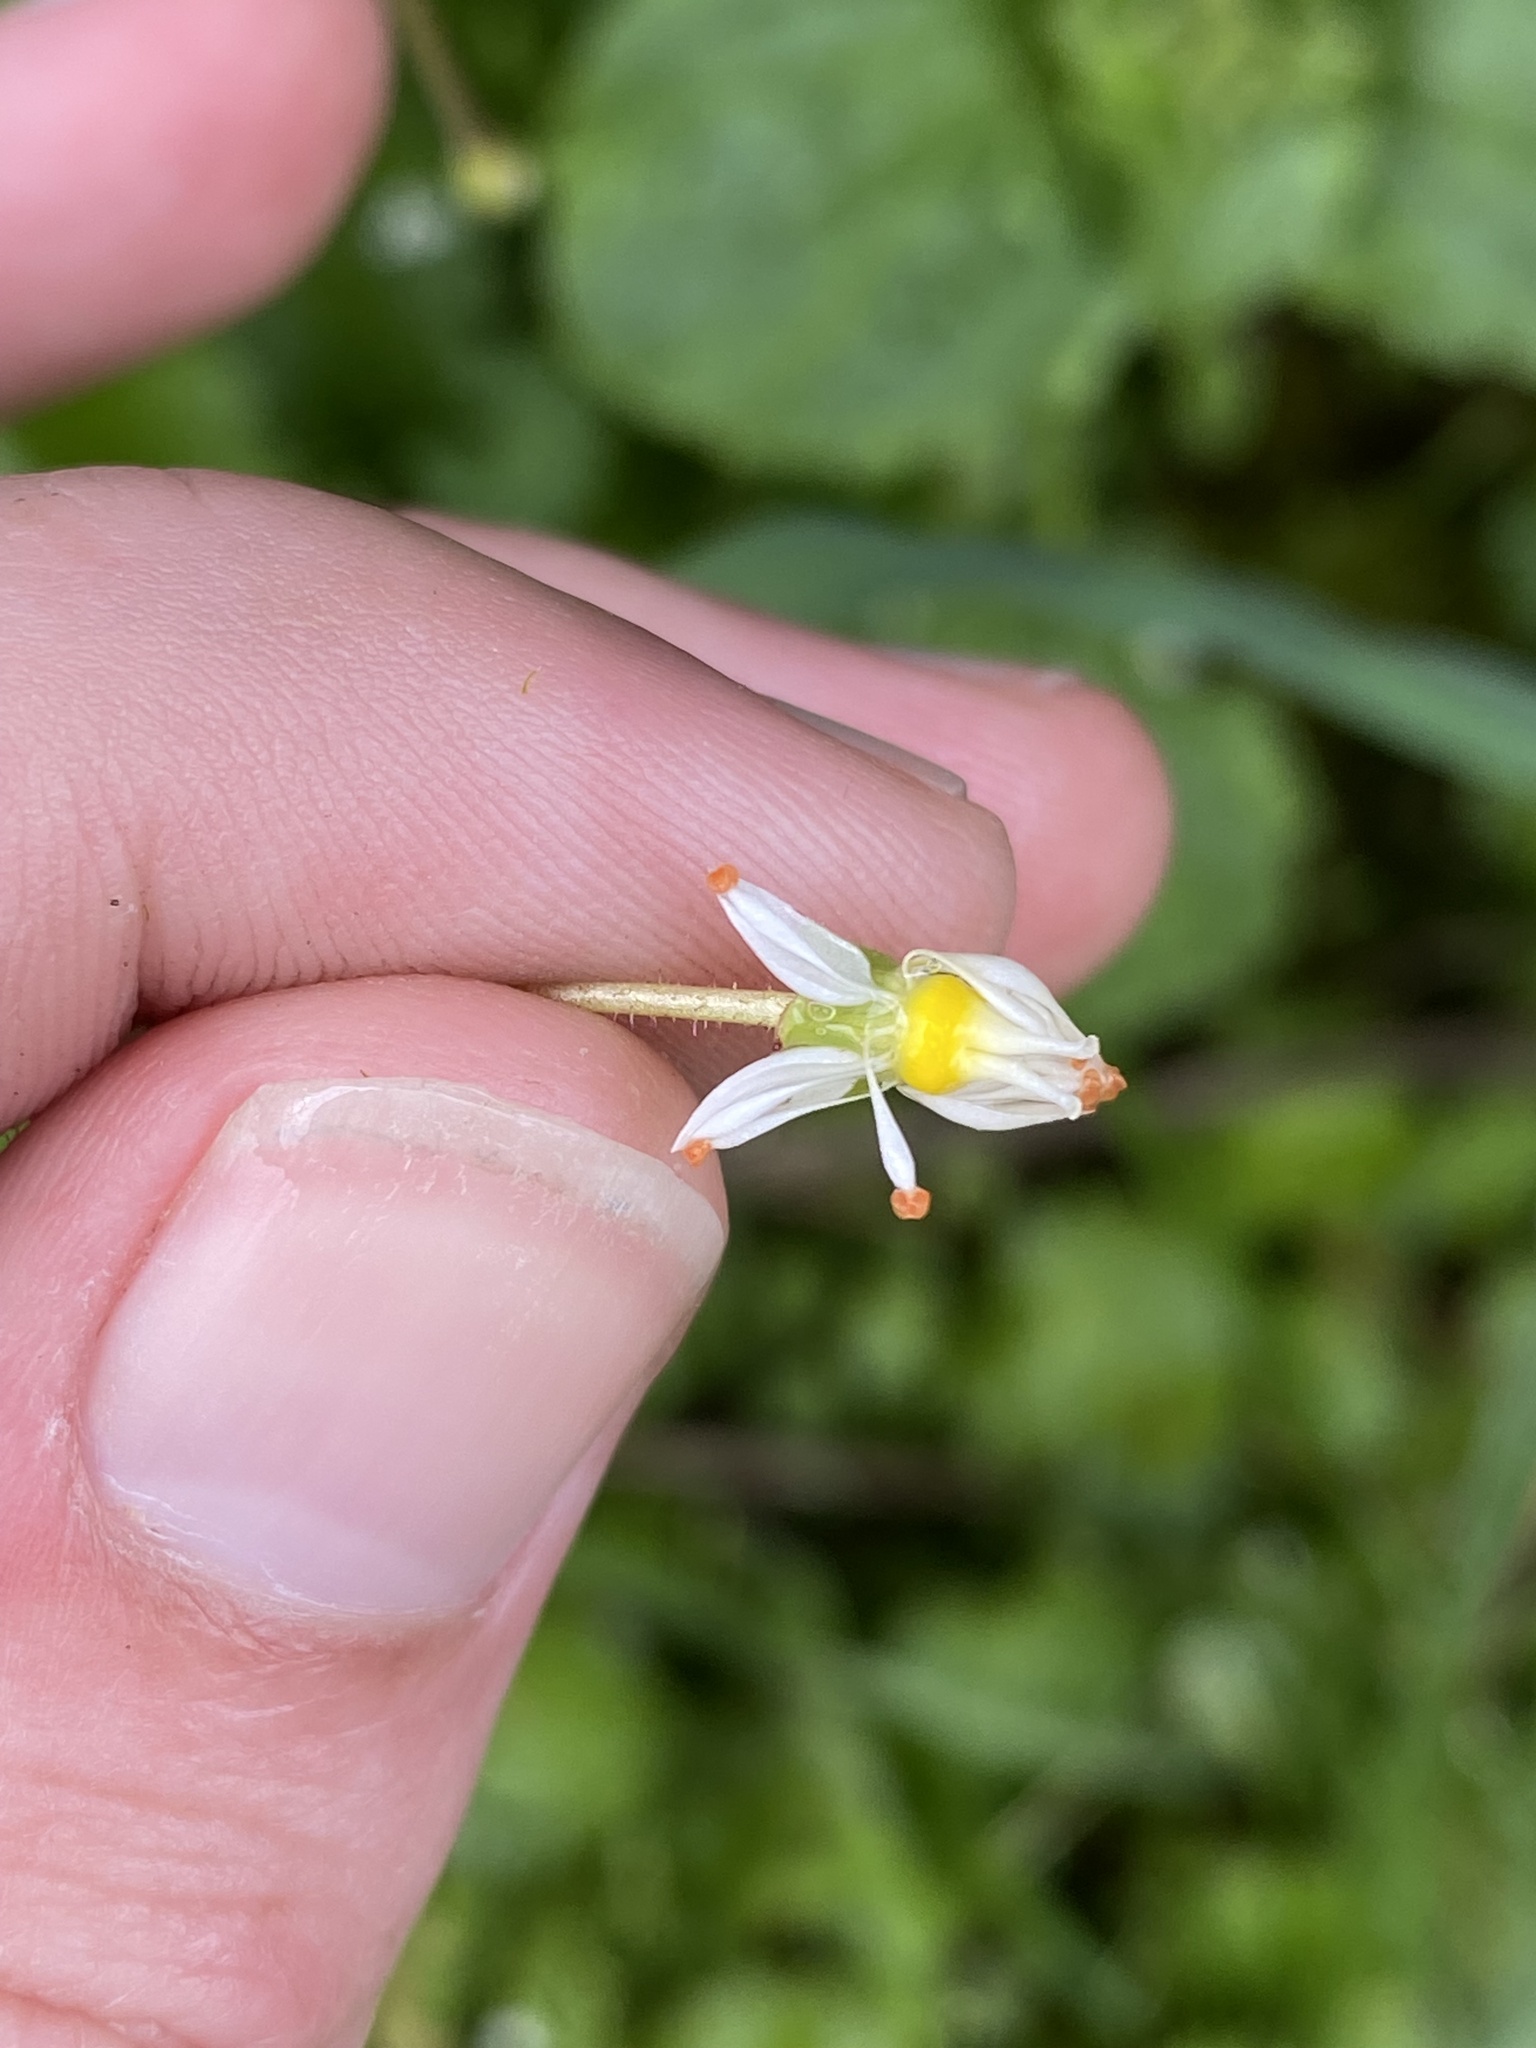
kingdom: Plantae
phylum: Tracheophyta
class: Magnoliopsida
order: Saxifragales
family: Saxifragaceae
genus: Micranthes
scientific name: Micranthes mertensiana
